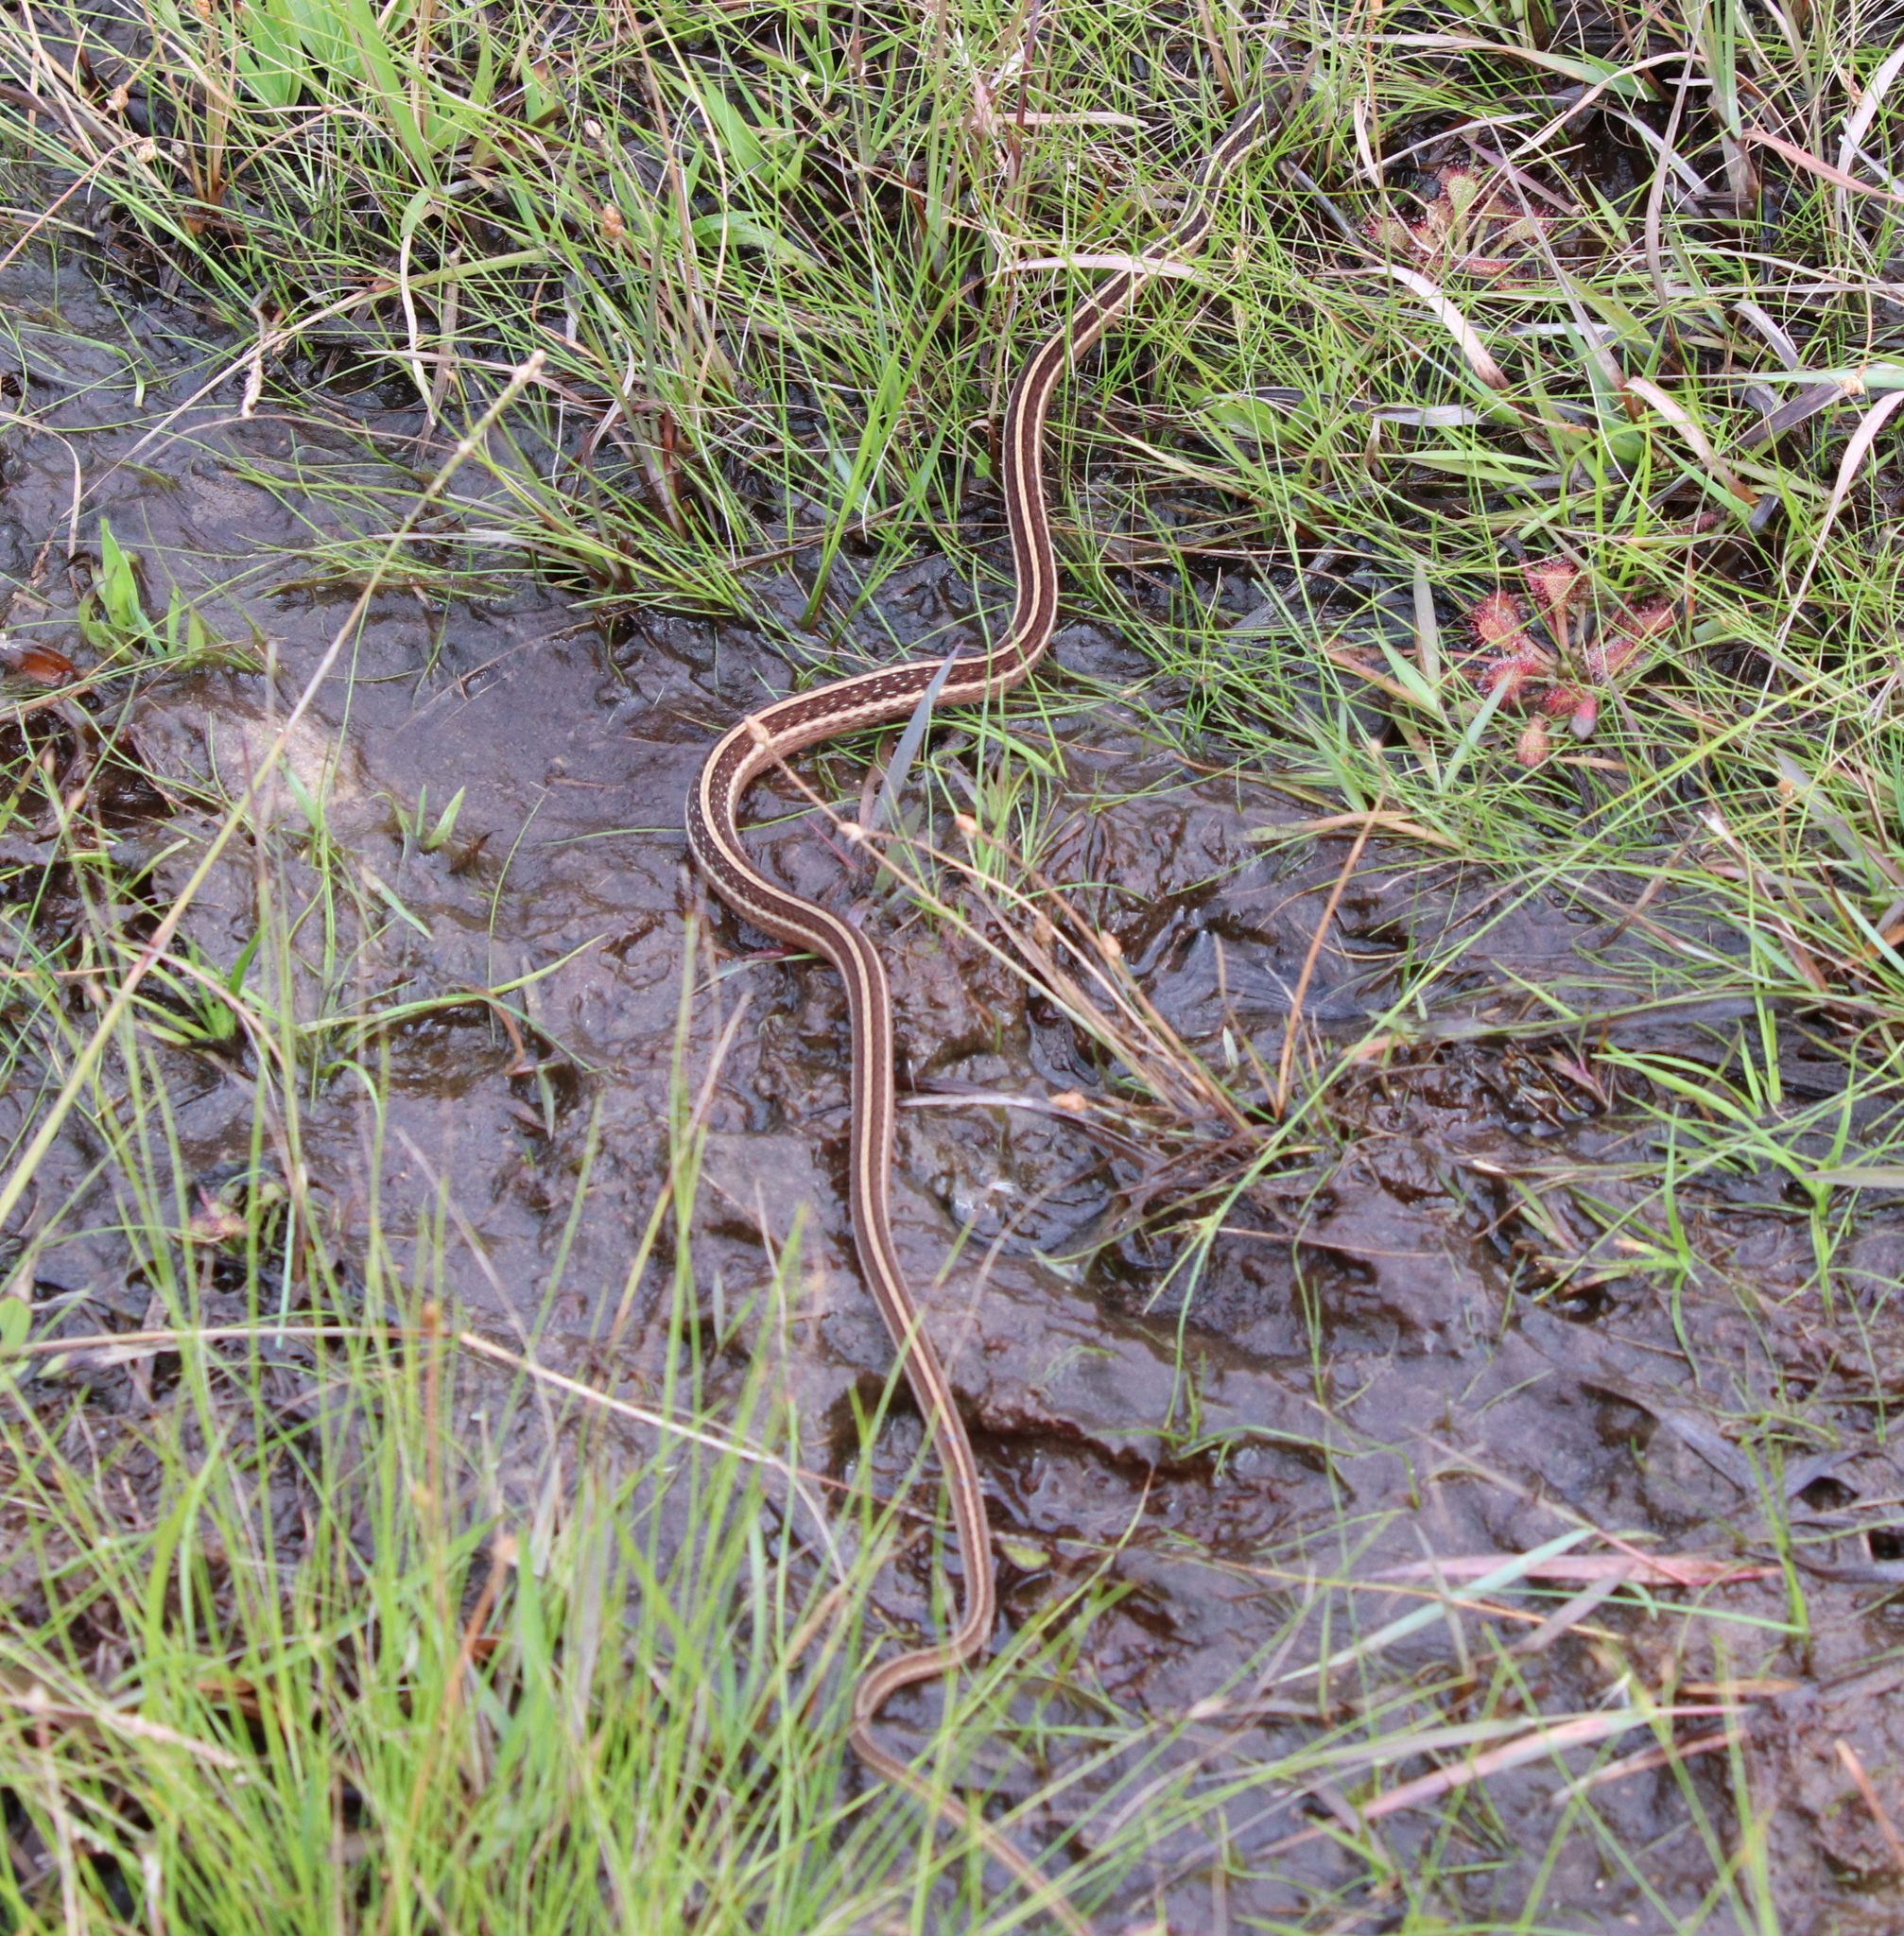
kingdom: Animalia
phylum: Chordata
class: Squamata
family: Colubridae
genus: Thamnophis
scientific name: Thamnophis saurita
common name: Eastern ribbonsnake
